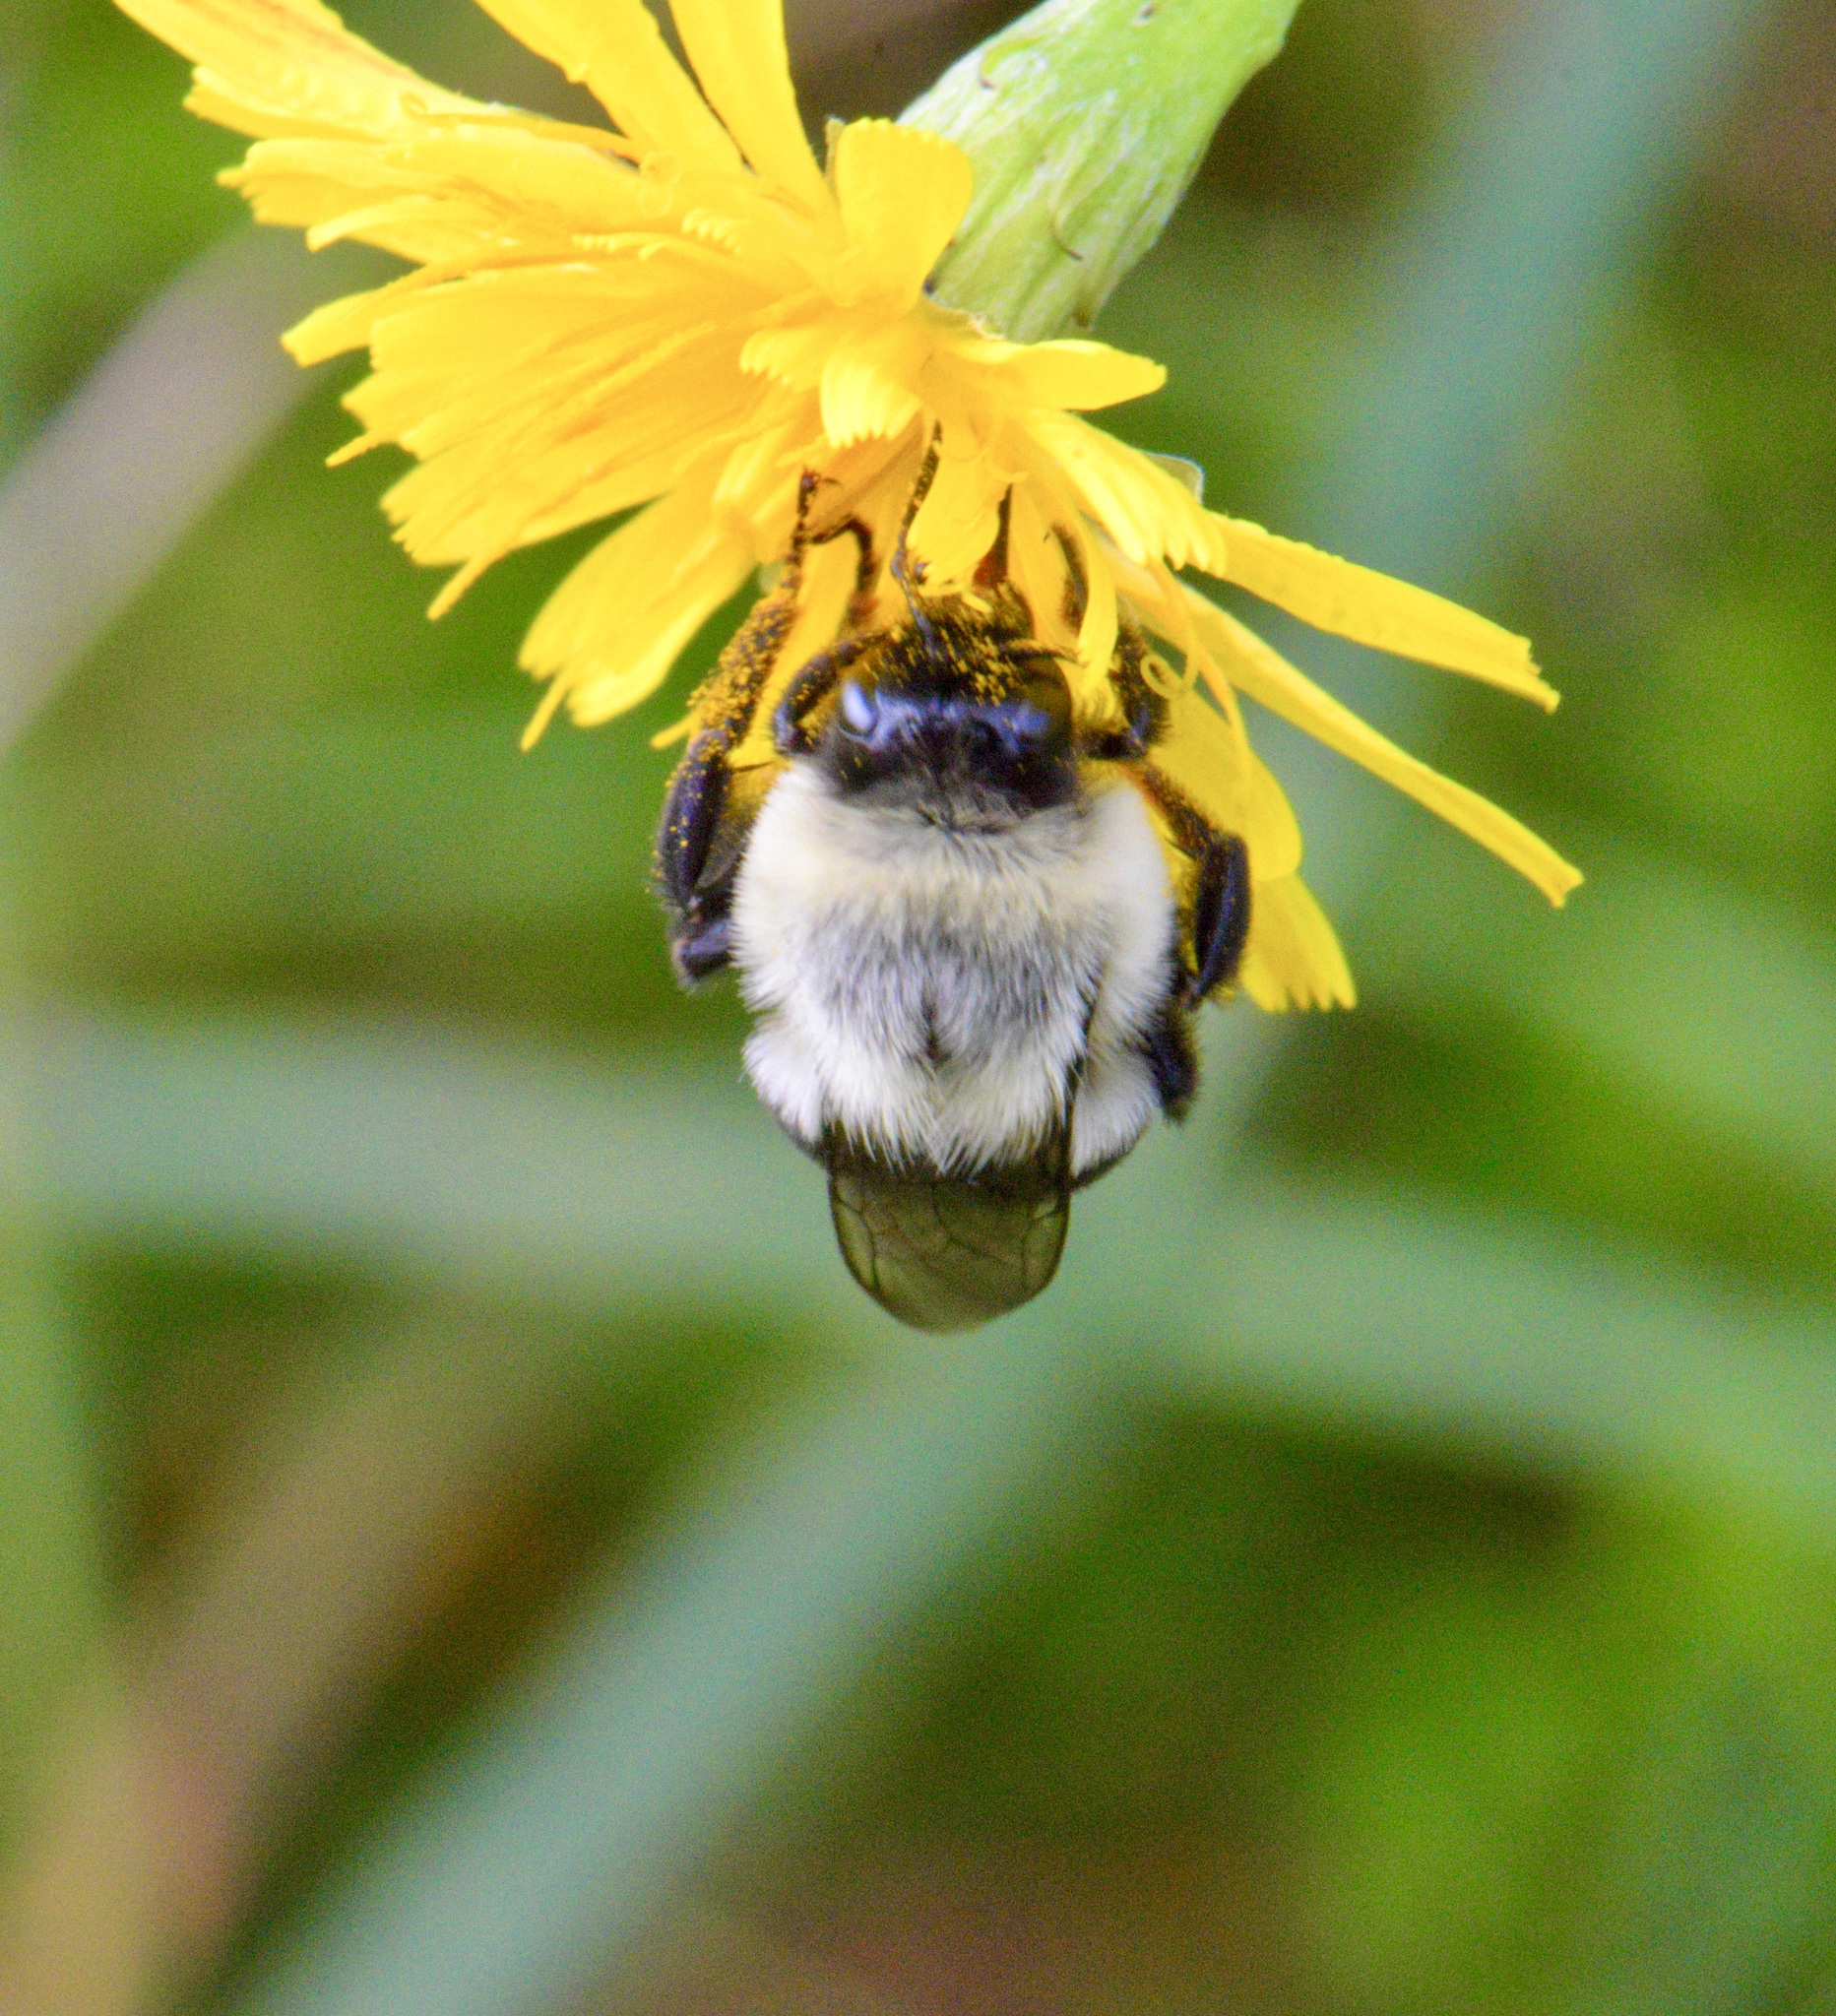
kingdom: Animalia
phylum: Arthropoda
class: Insecta
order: Hymenoptera
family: Apidae
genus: Bombus
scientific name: Bombus impatiens
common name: Common eastern bumble bee
